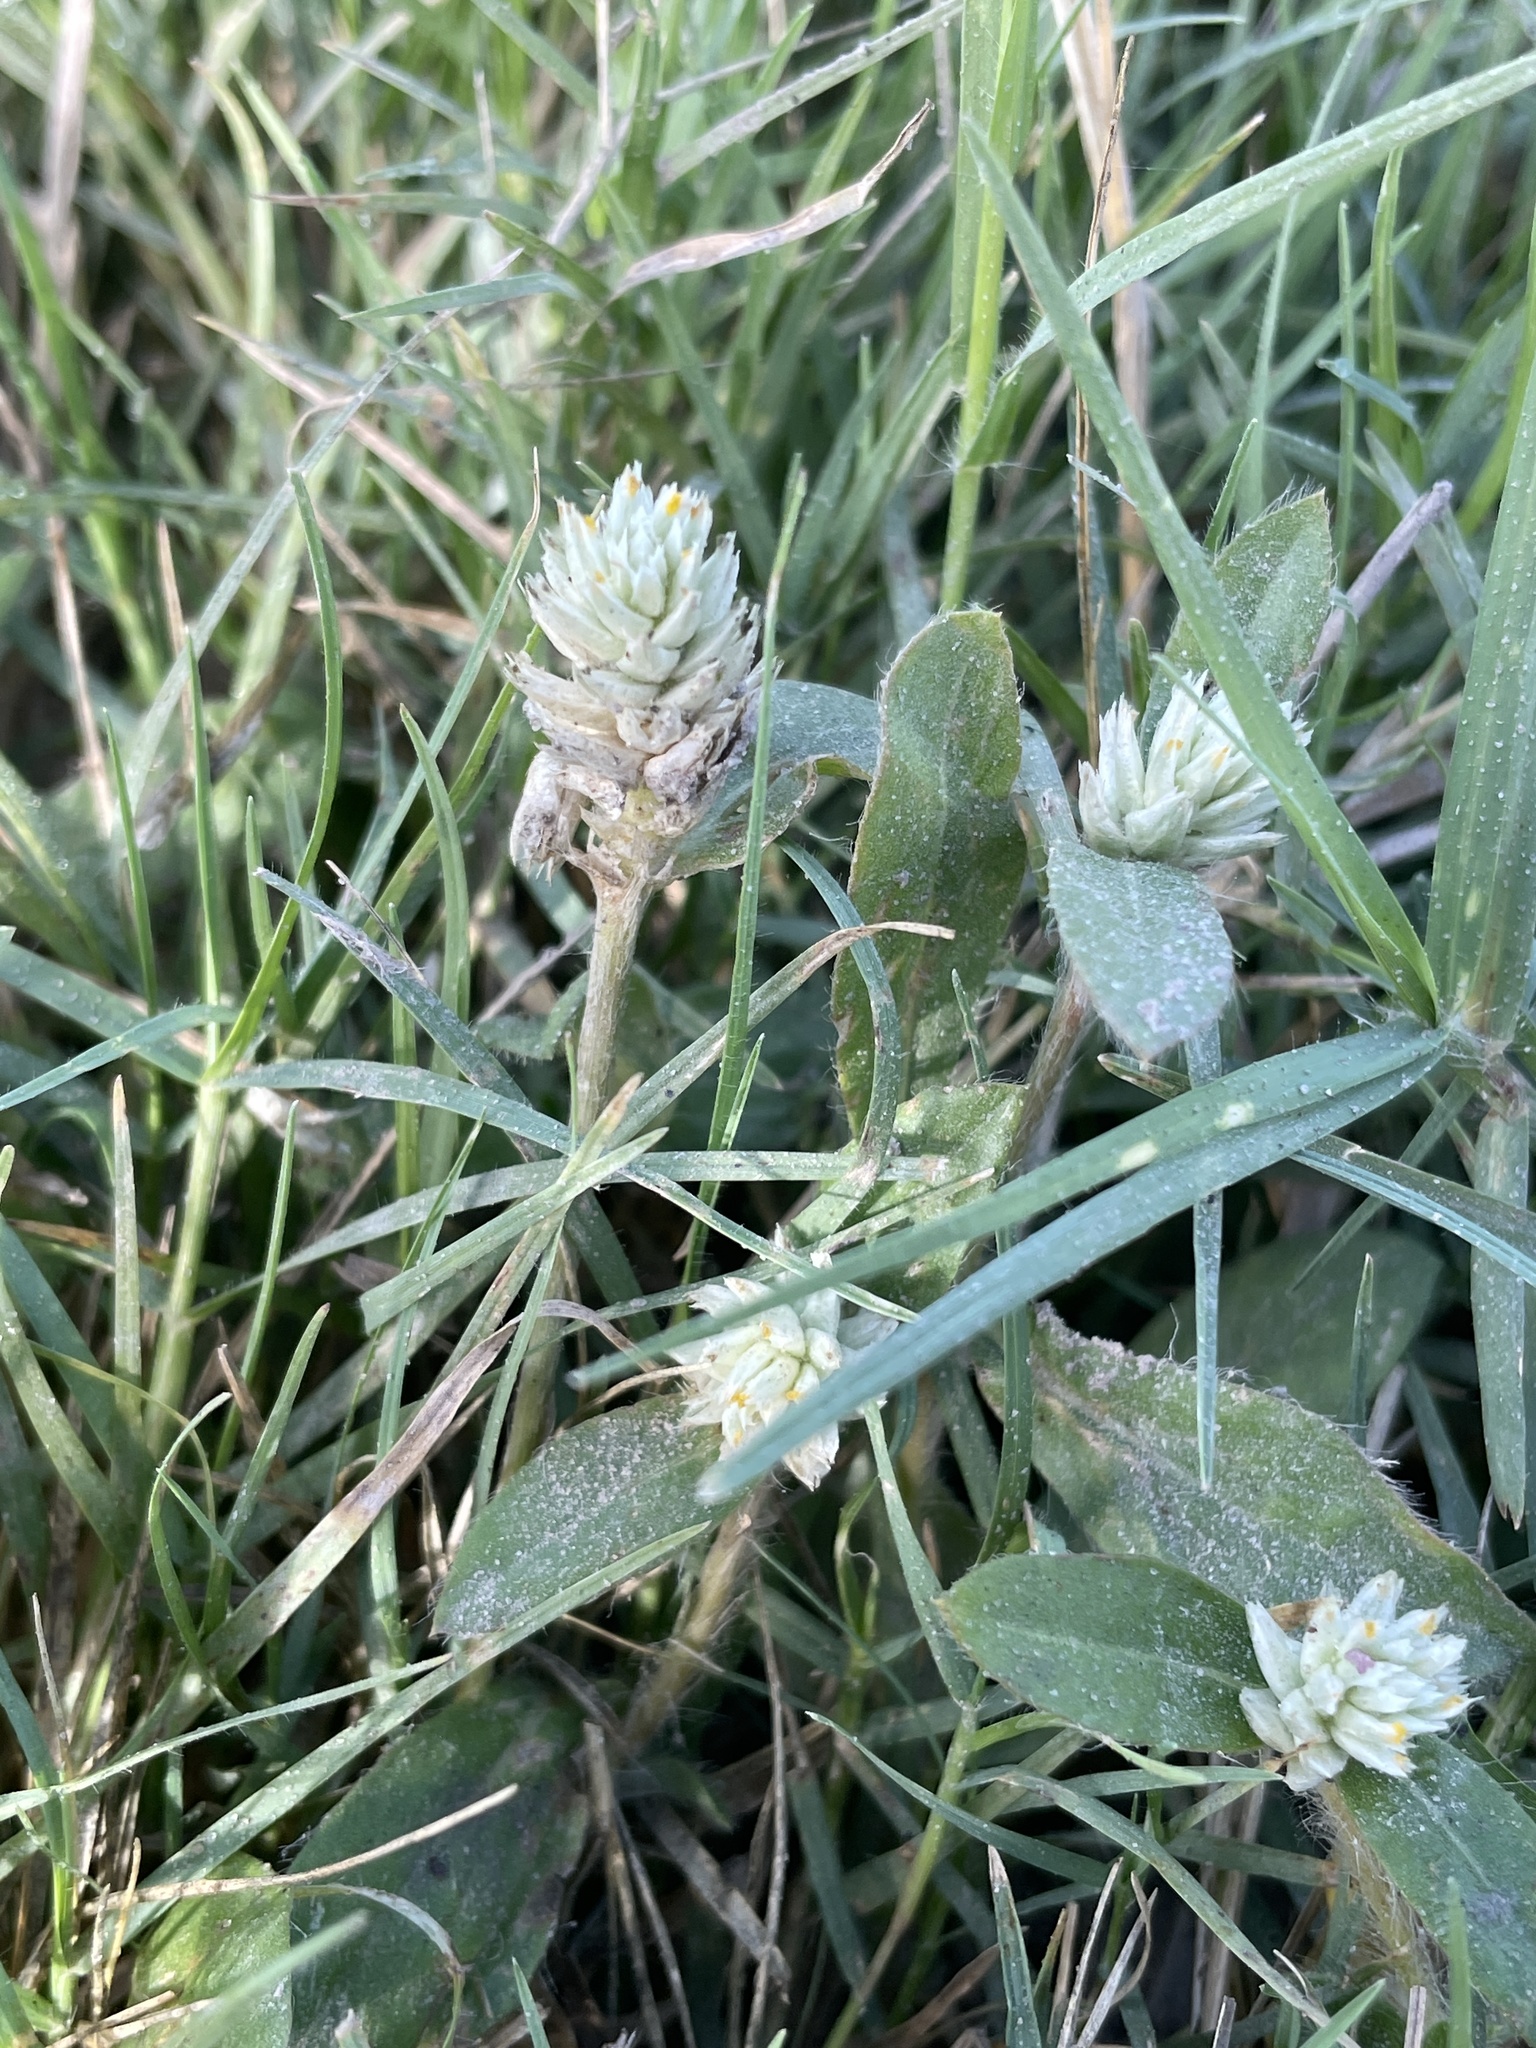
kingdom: Plantae
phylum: Tracheophyta
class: Magnoliopsida
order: Caryophyllales
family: Amaranthaceae
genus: Gomphrena
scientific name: Gomphrena celosioides
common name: Gomphrena-weed
